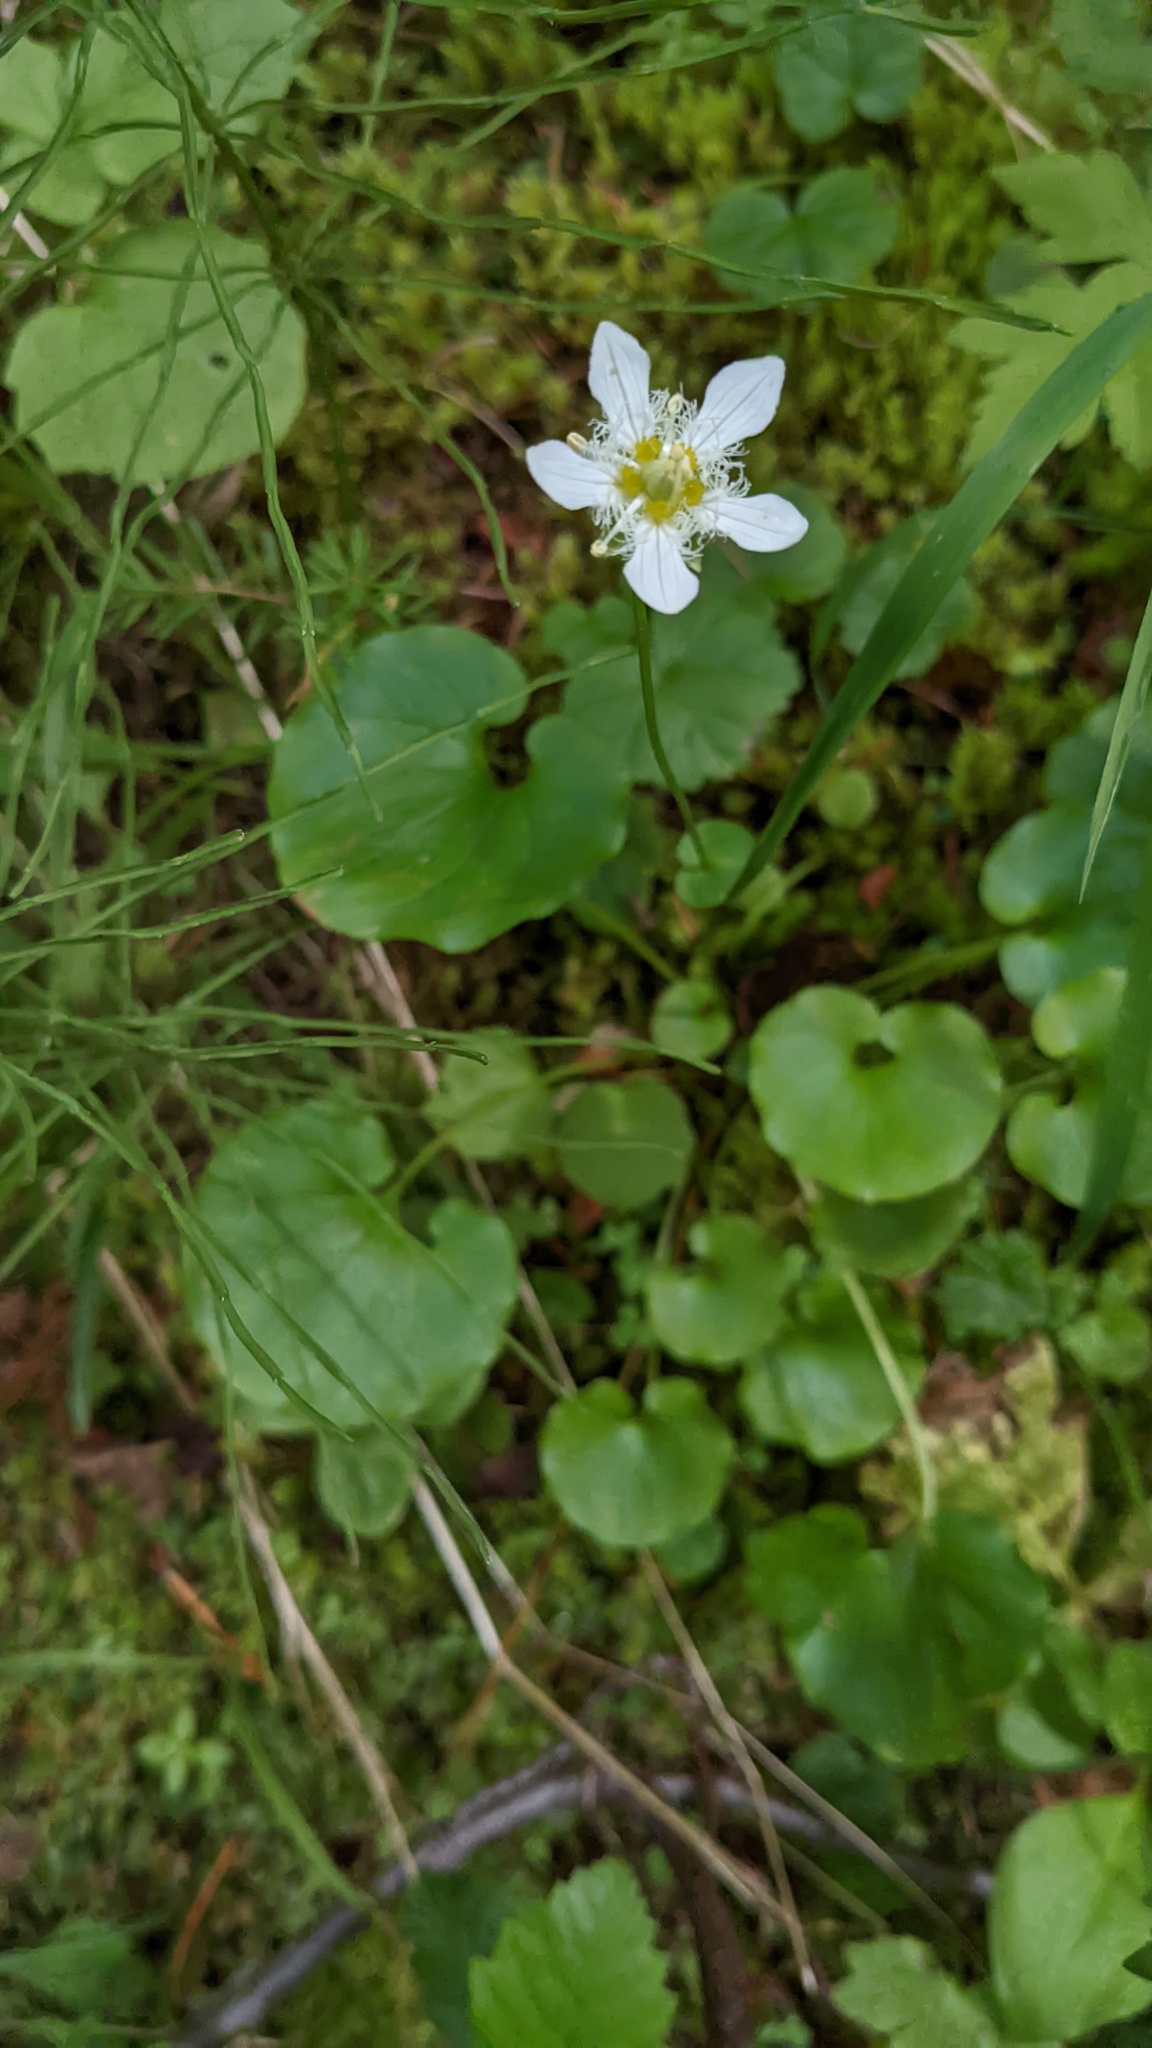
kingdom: Plantae
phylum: Tracheophyta
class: Magnoliopsida
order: Celastrales
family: Parnassiaceae
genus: Parnassia
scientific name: Parnassia fimbriata
